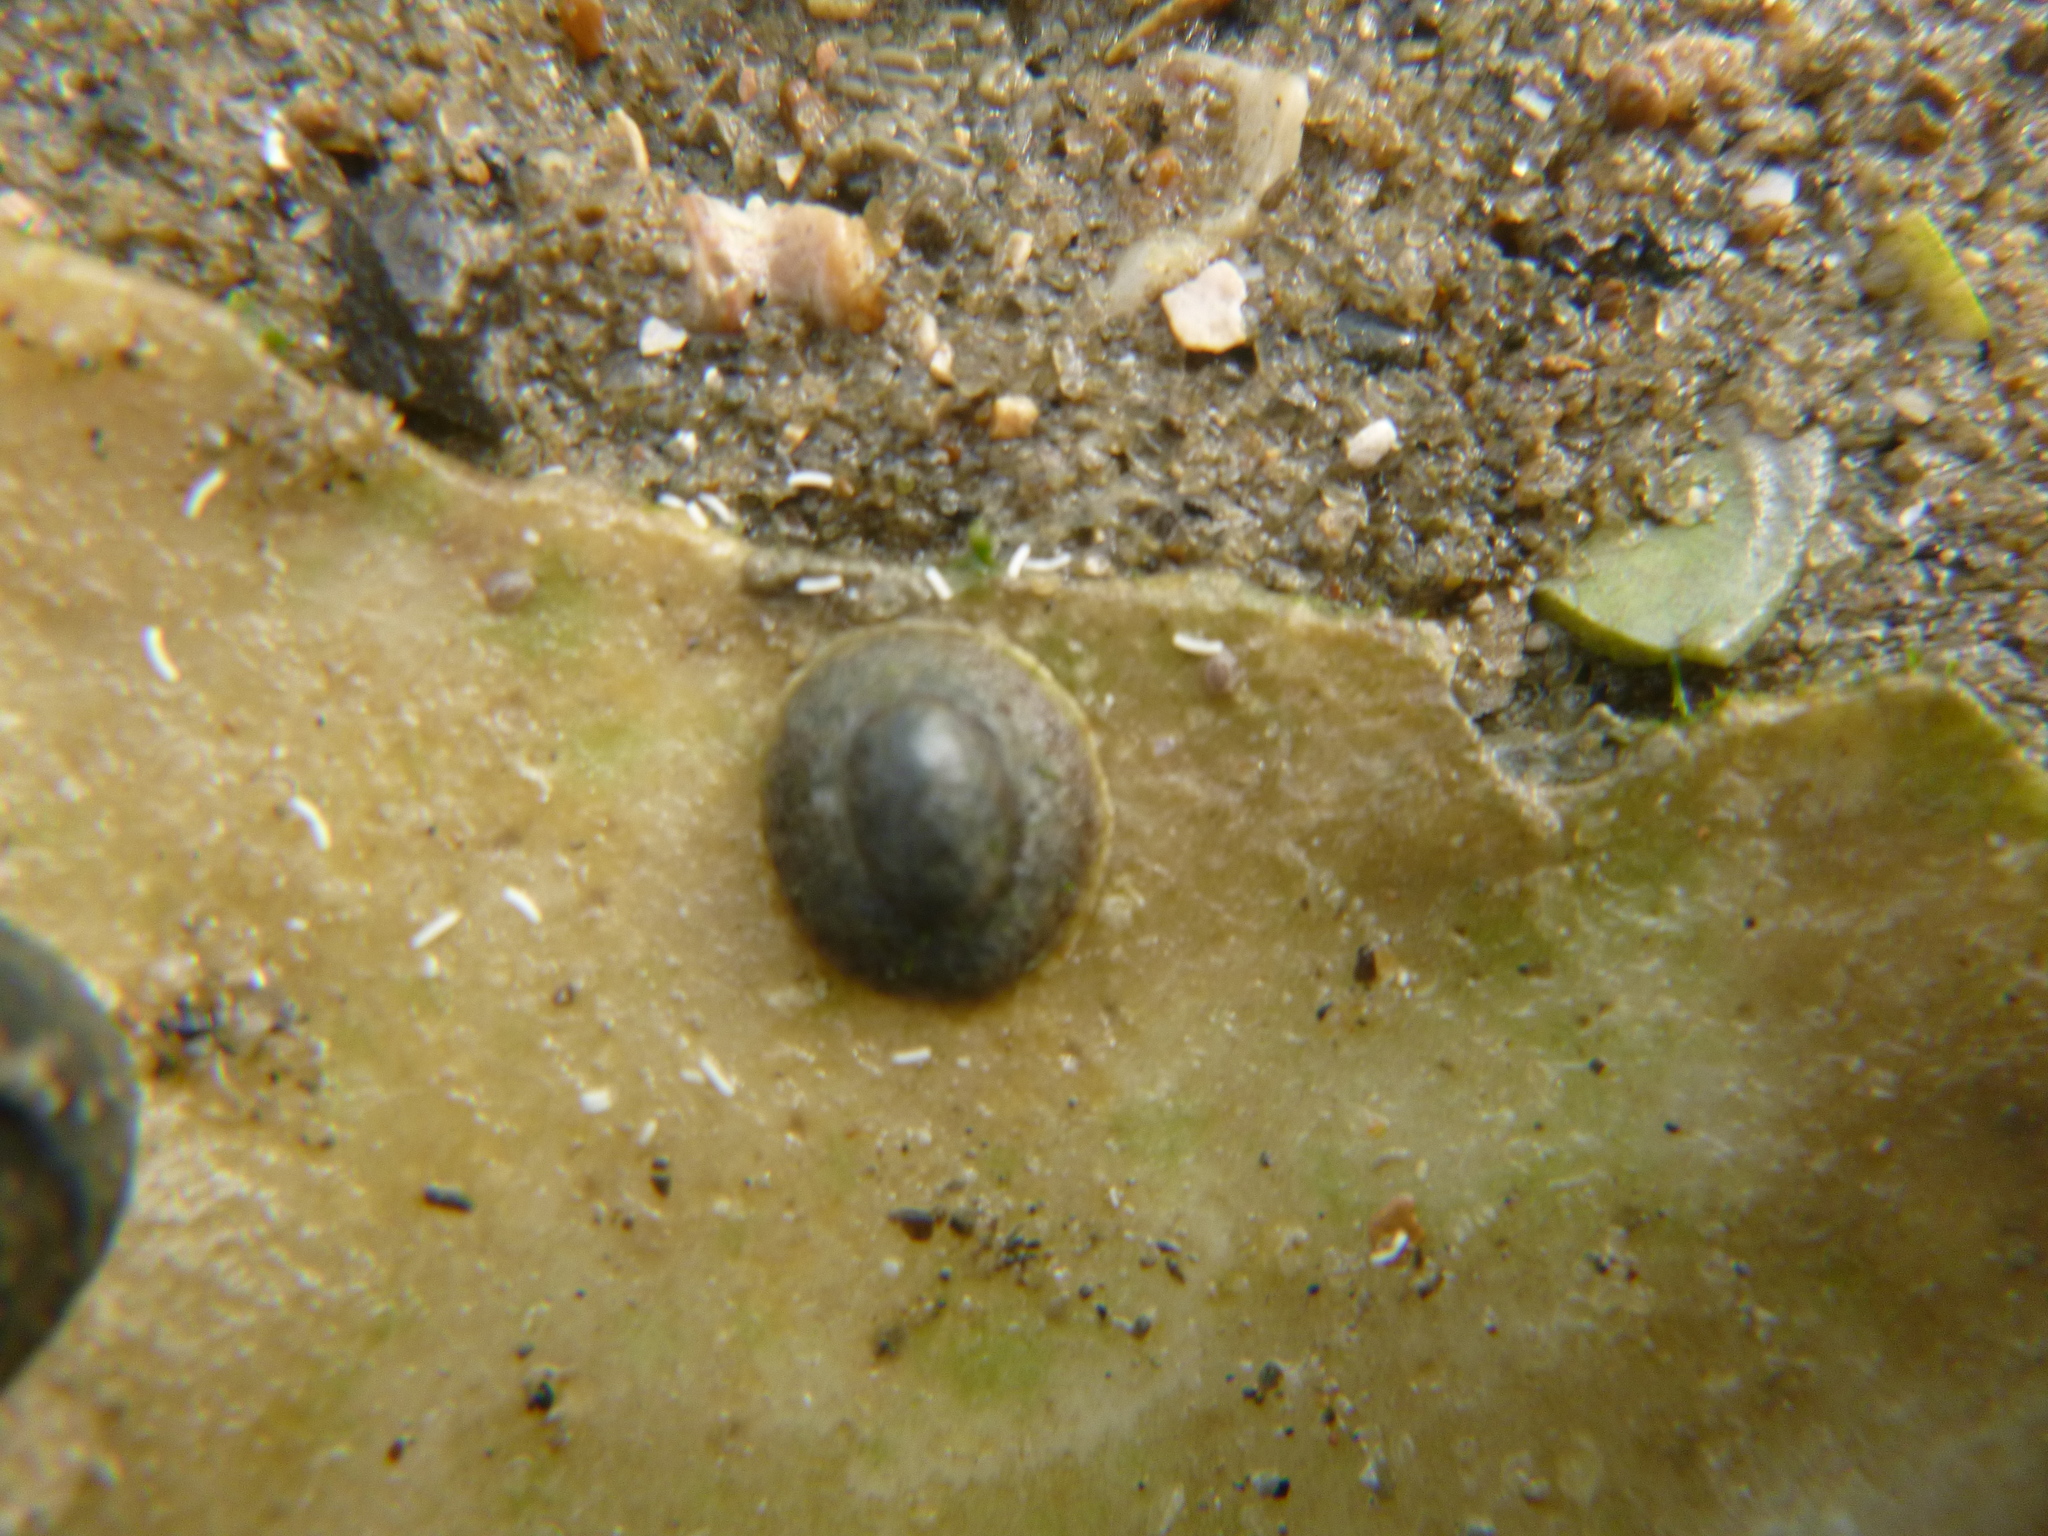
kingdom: Animalia
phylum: Mollusca
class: Gastropoda
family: Lottiidae
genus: Notoacmea
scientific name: Notoacmea
